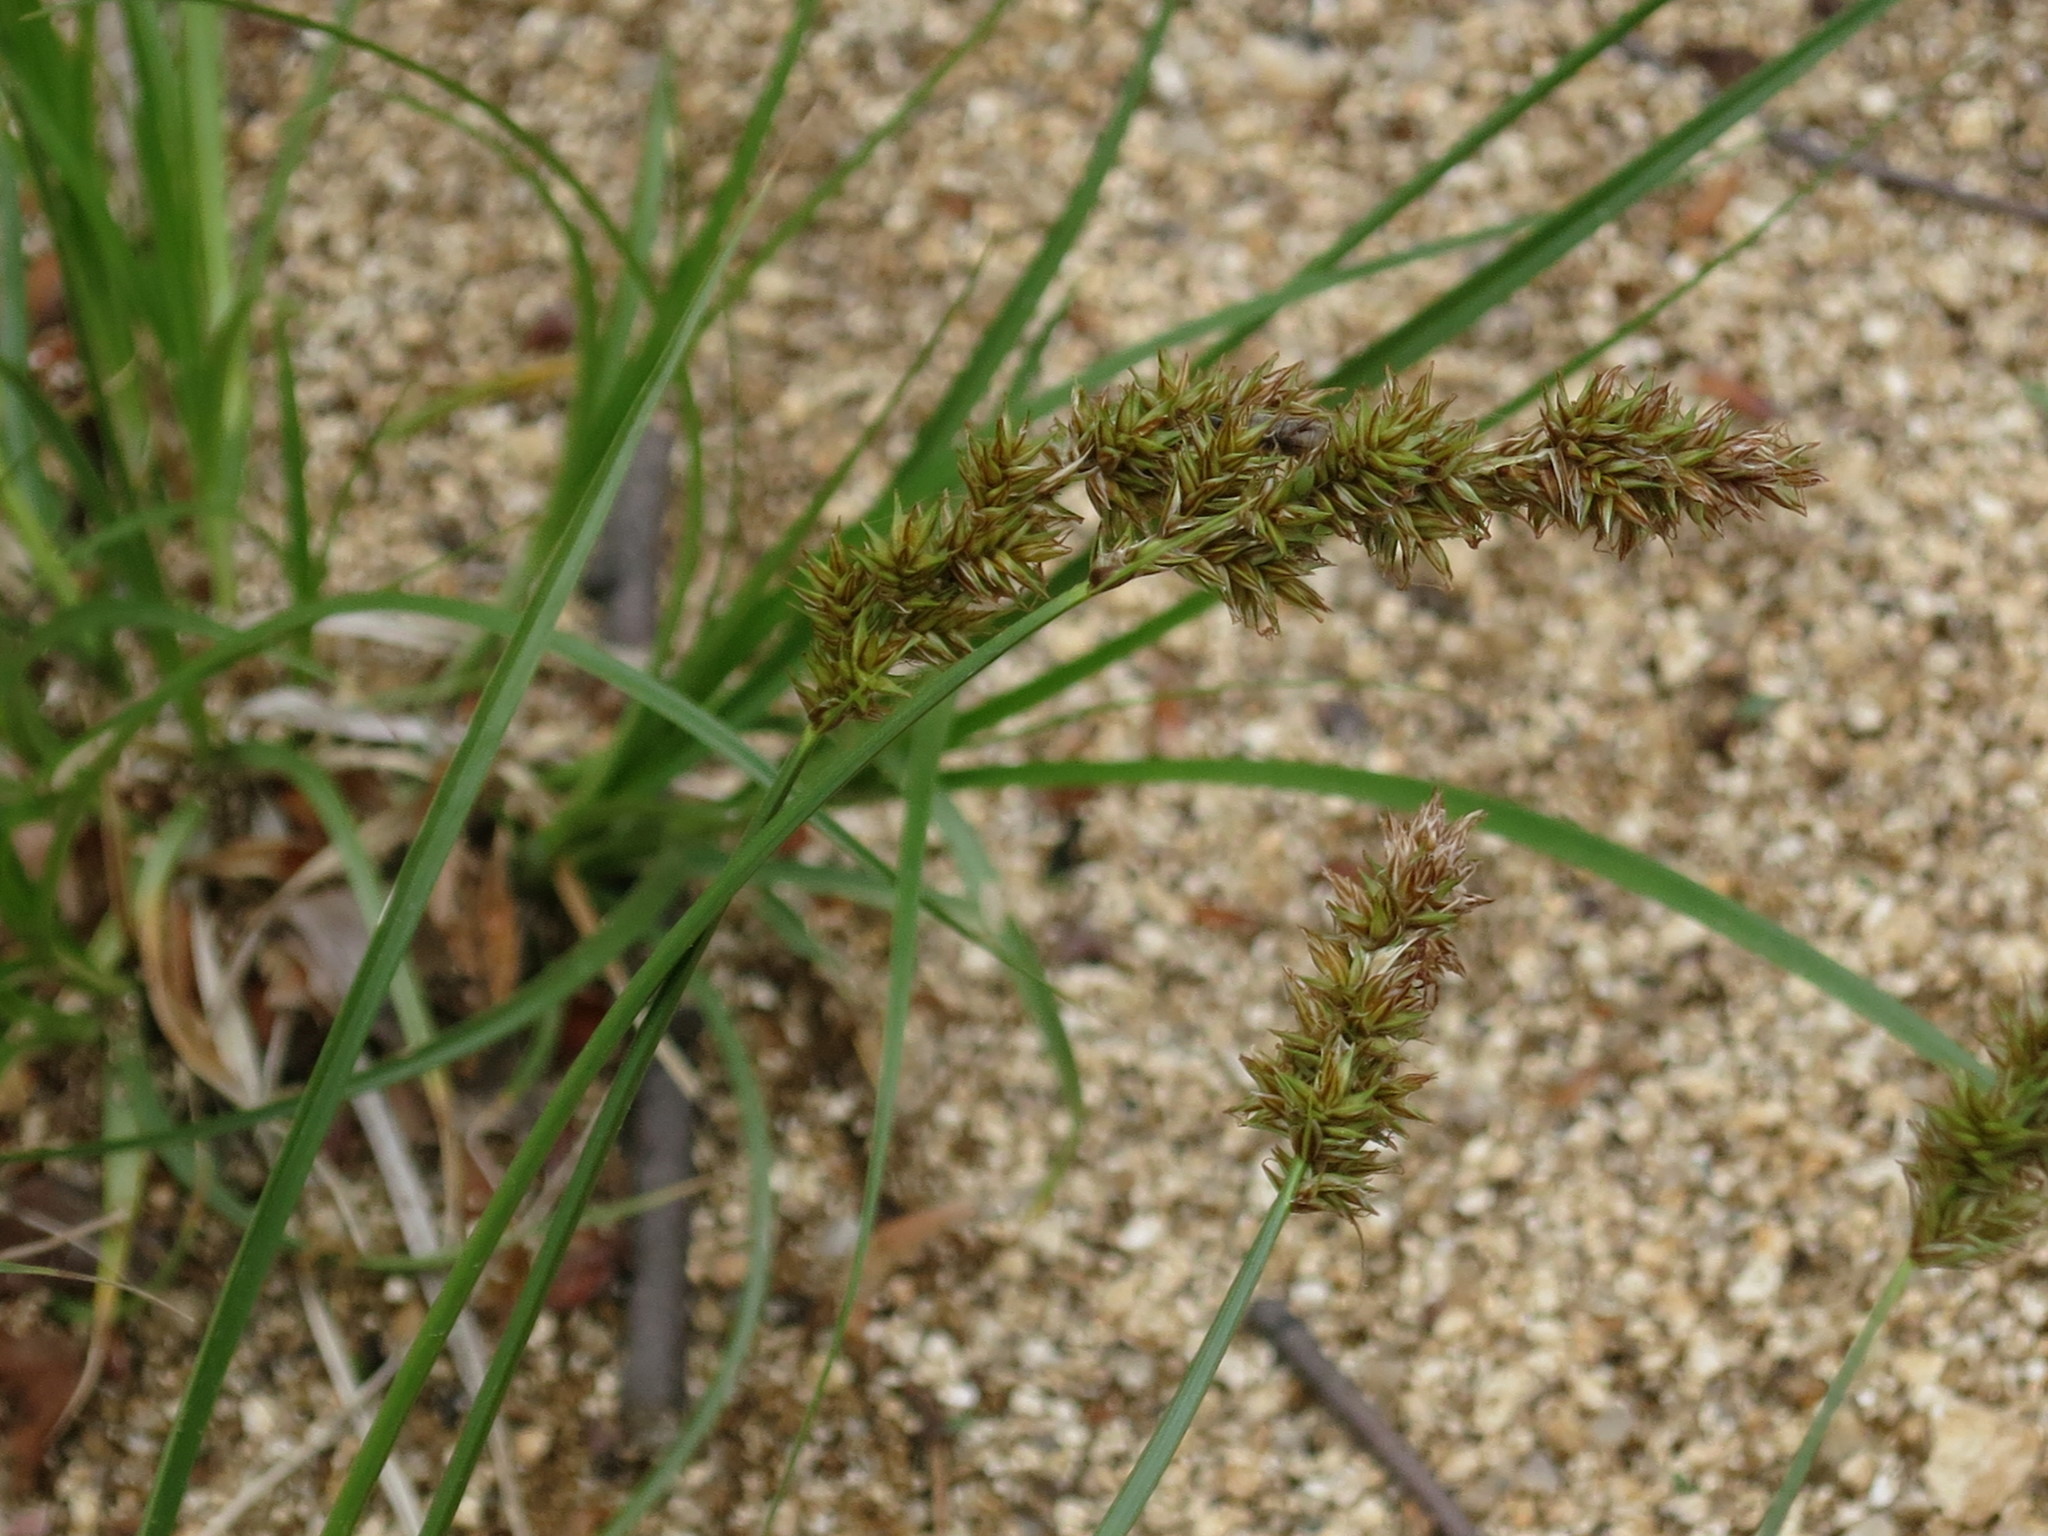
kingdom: Plantae
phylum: Tracheophyta
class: Liliopsida
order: Poales
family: Cyperaceae
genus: Carex
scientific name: Carex laevissima
